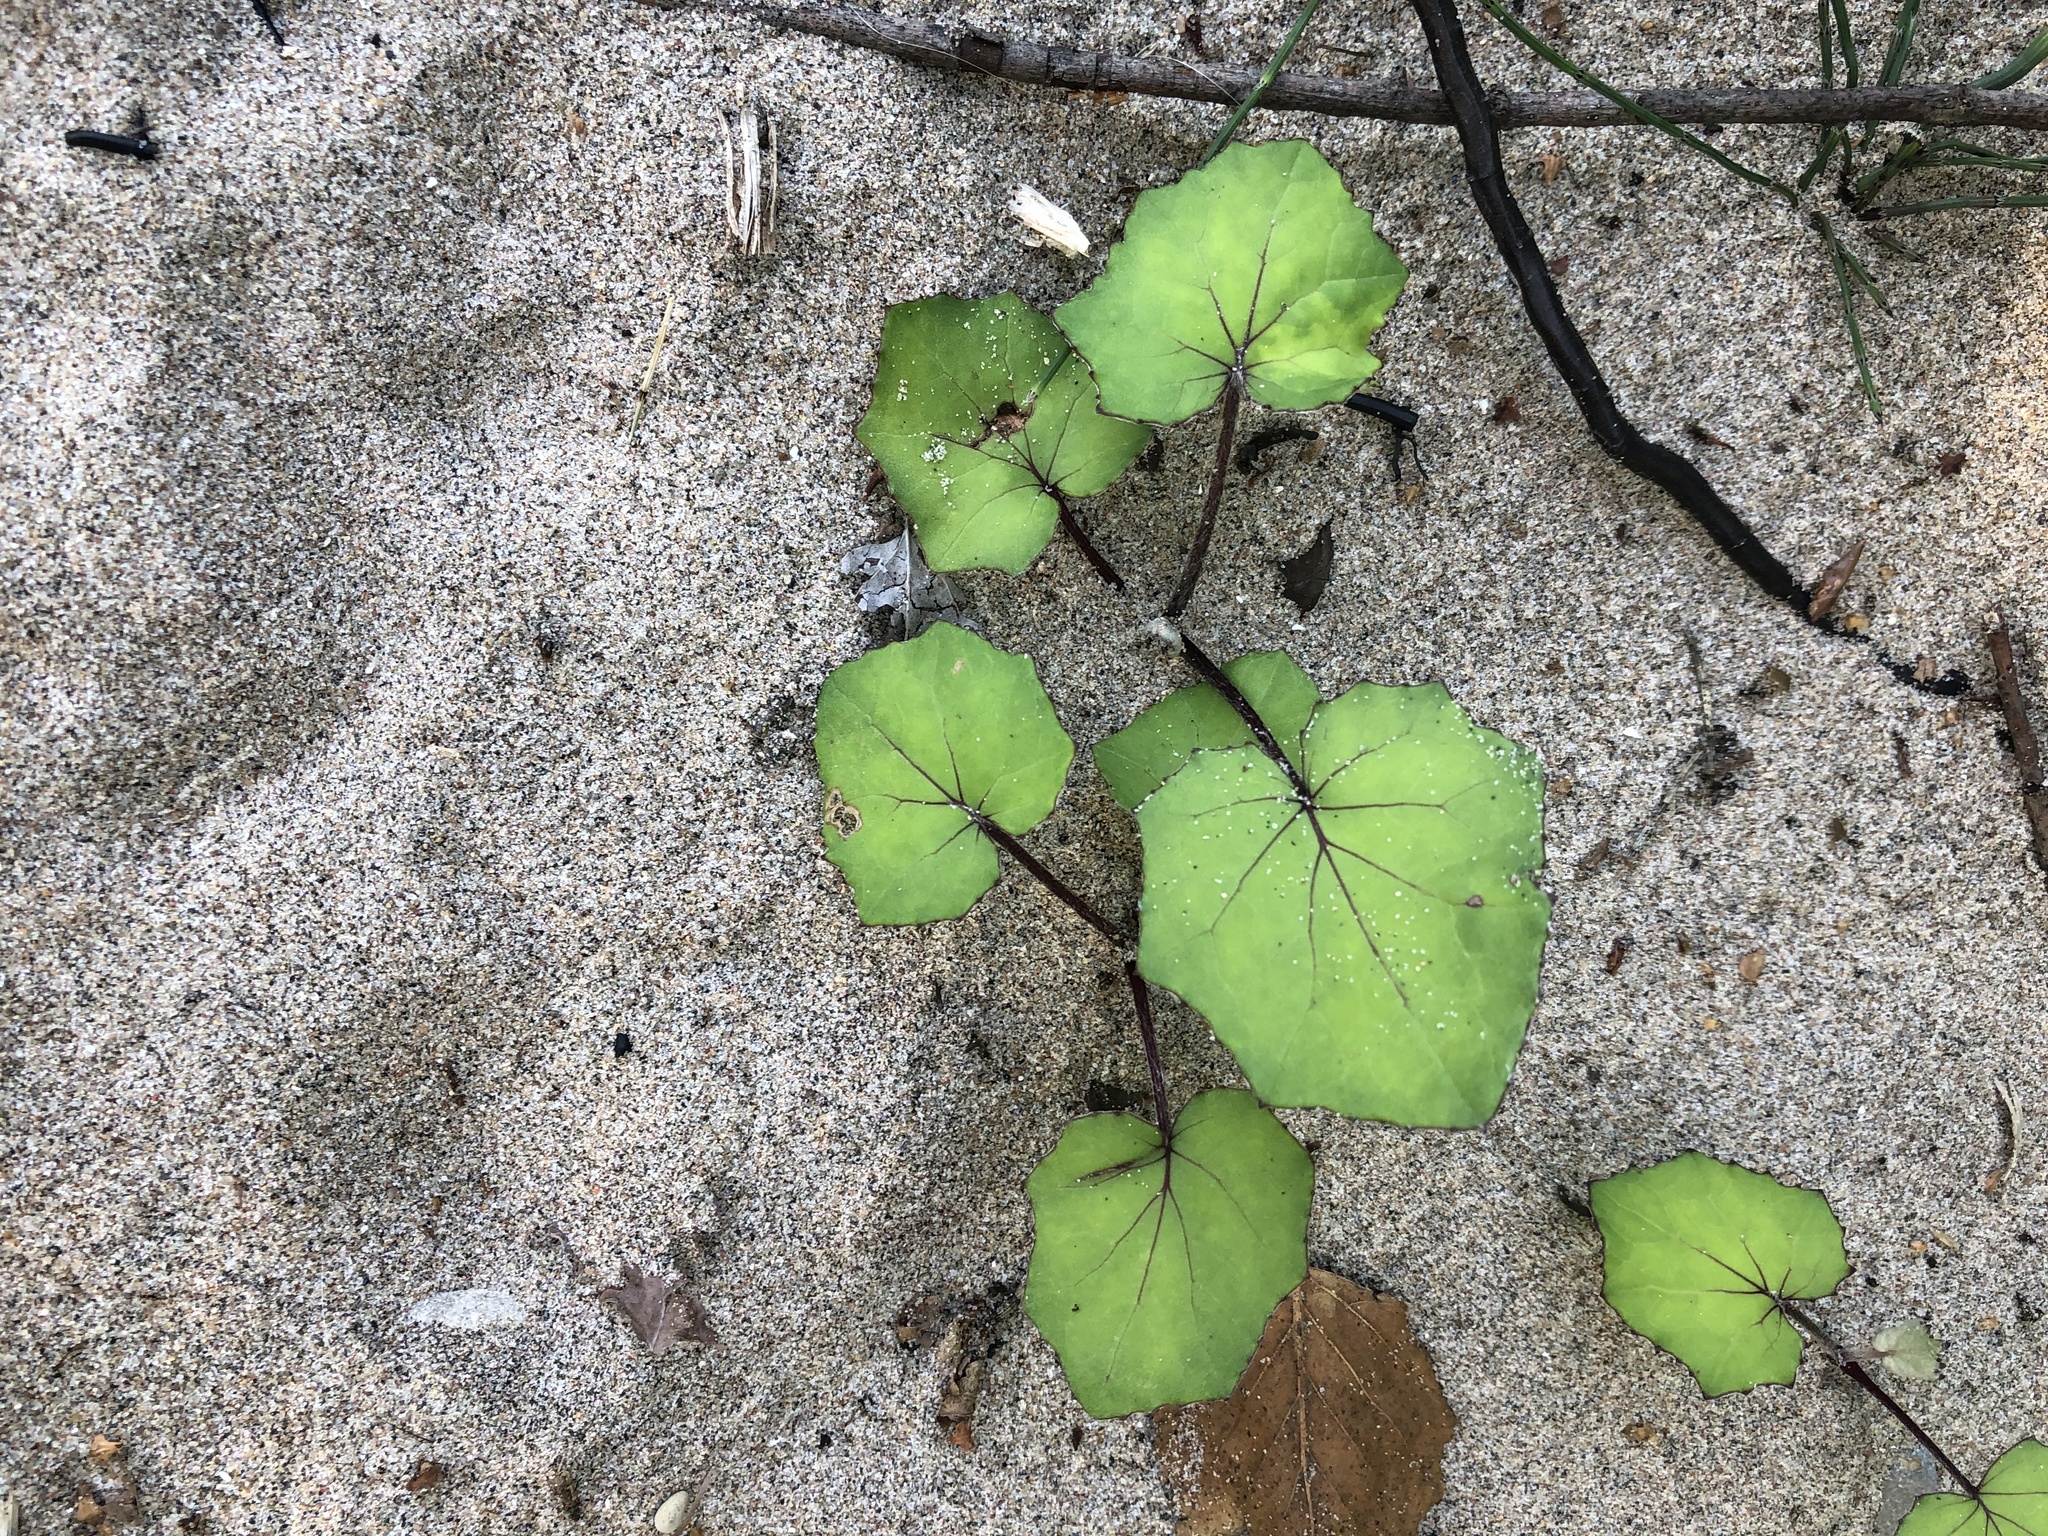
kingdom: Plantae
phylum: Tracheophyta
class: Magnoliopsida
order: Asterales
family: Asteraceae
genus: Tussilago
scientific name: Tussilago farfara
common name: Coltsfoot
